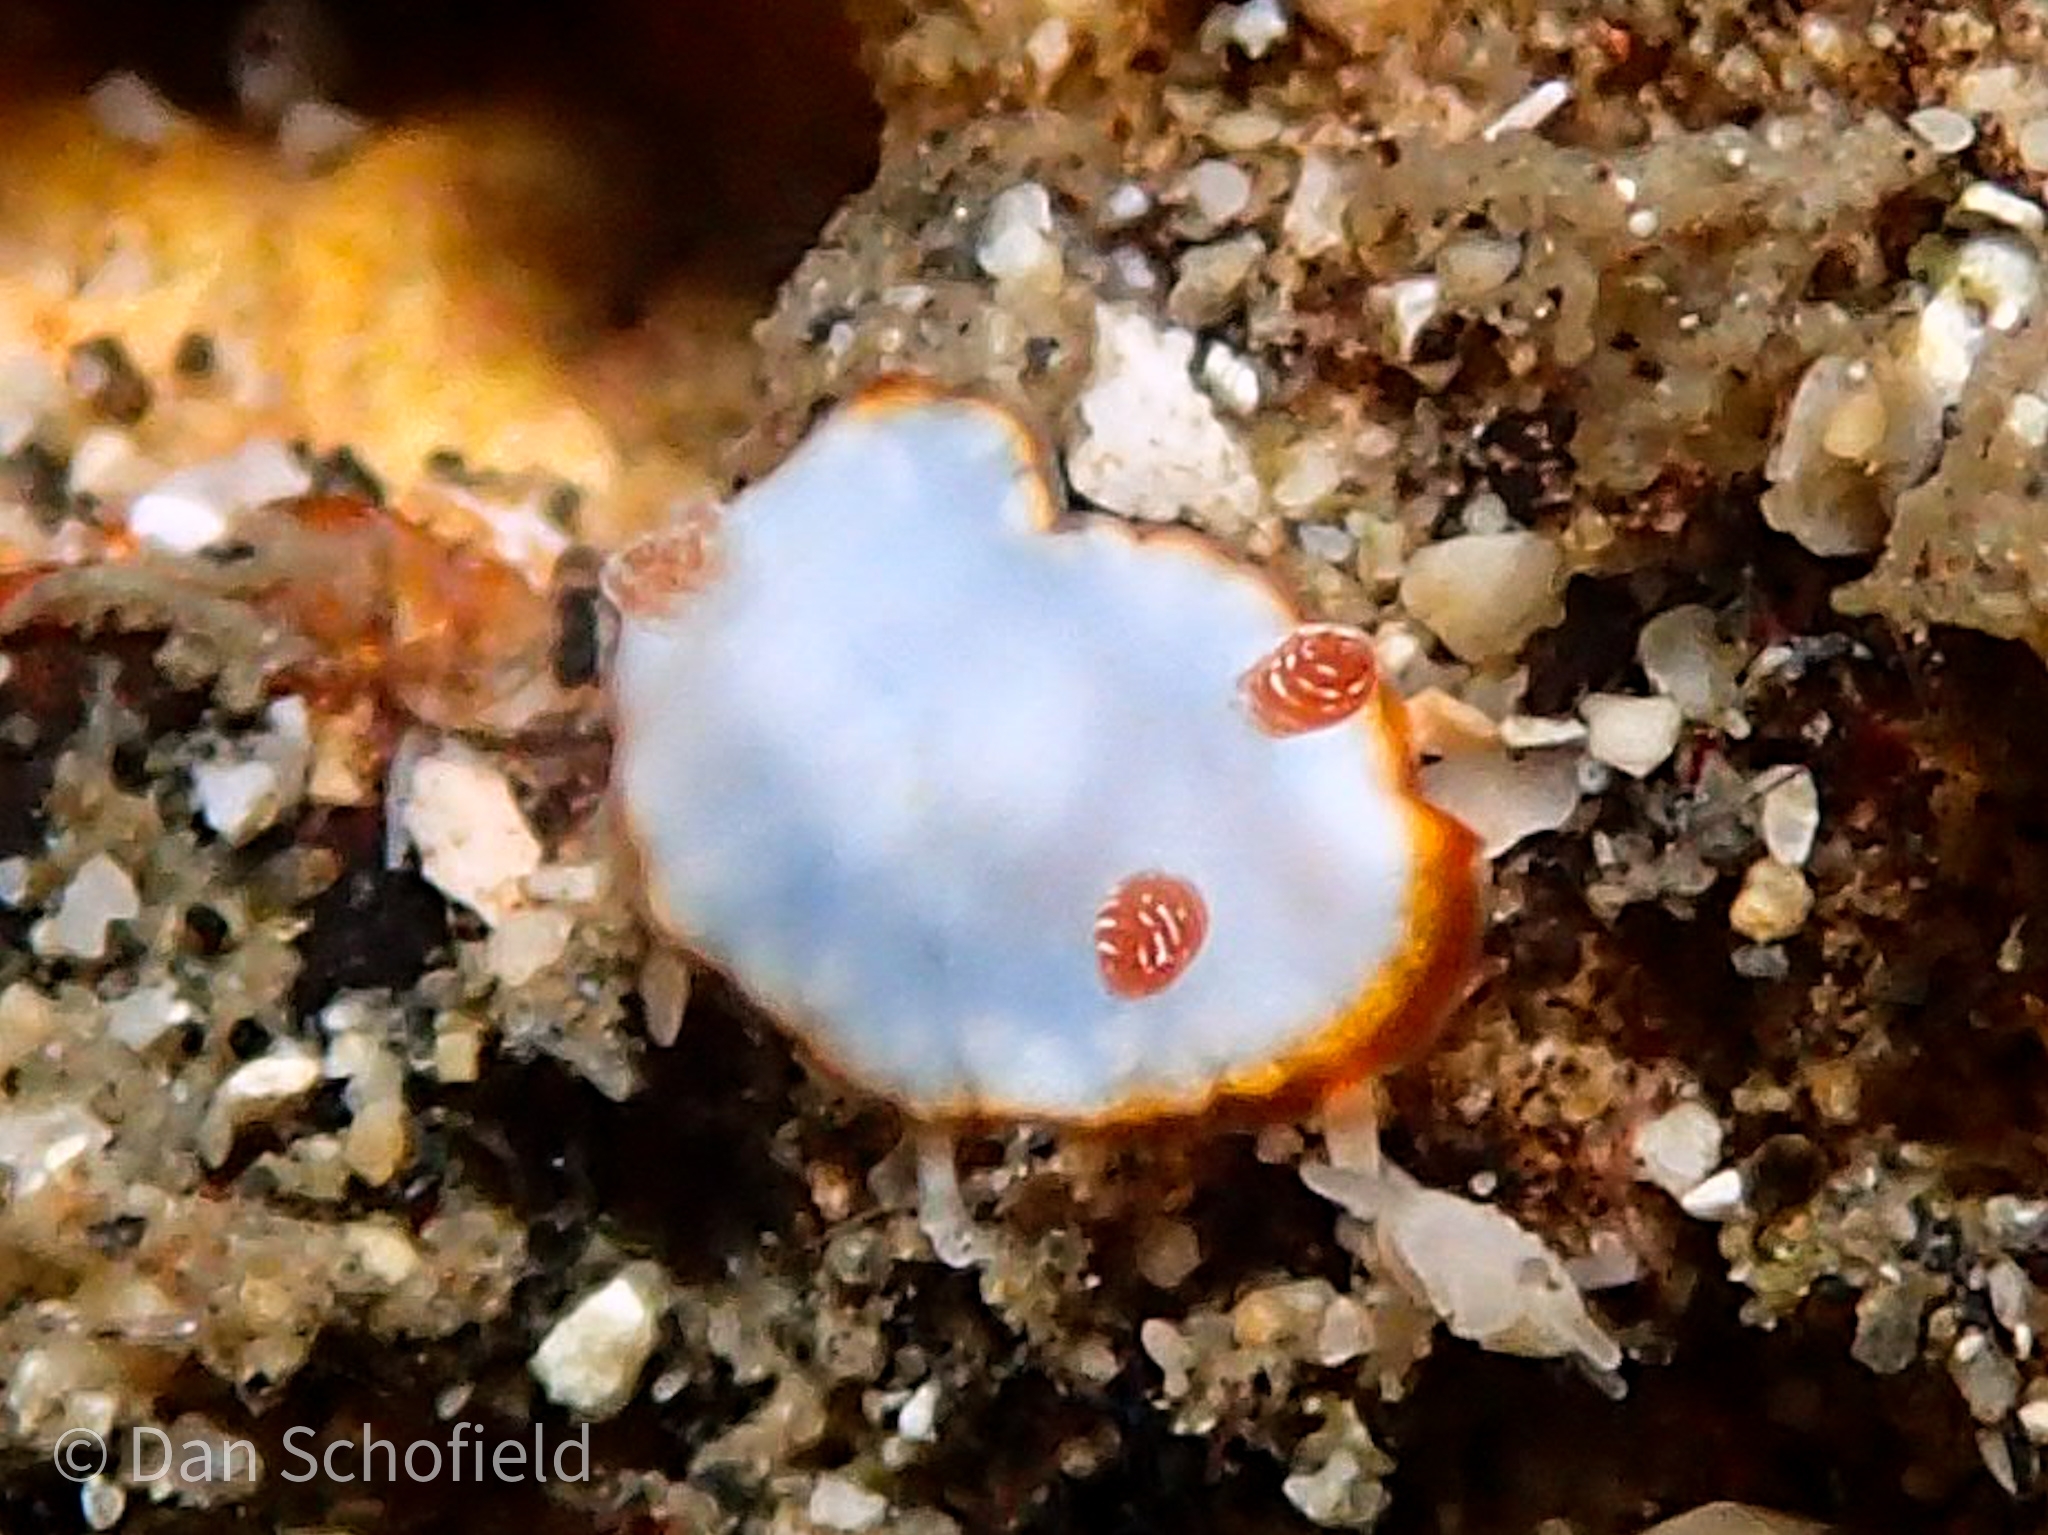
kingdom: Animalia
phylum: Mollusca
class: Gastropoda
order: Nudibranchia
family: Chromodorididae
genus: Goniobranchus
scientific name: Goniobranchus verrieri
